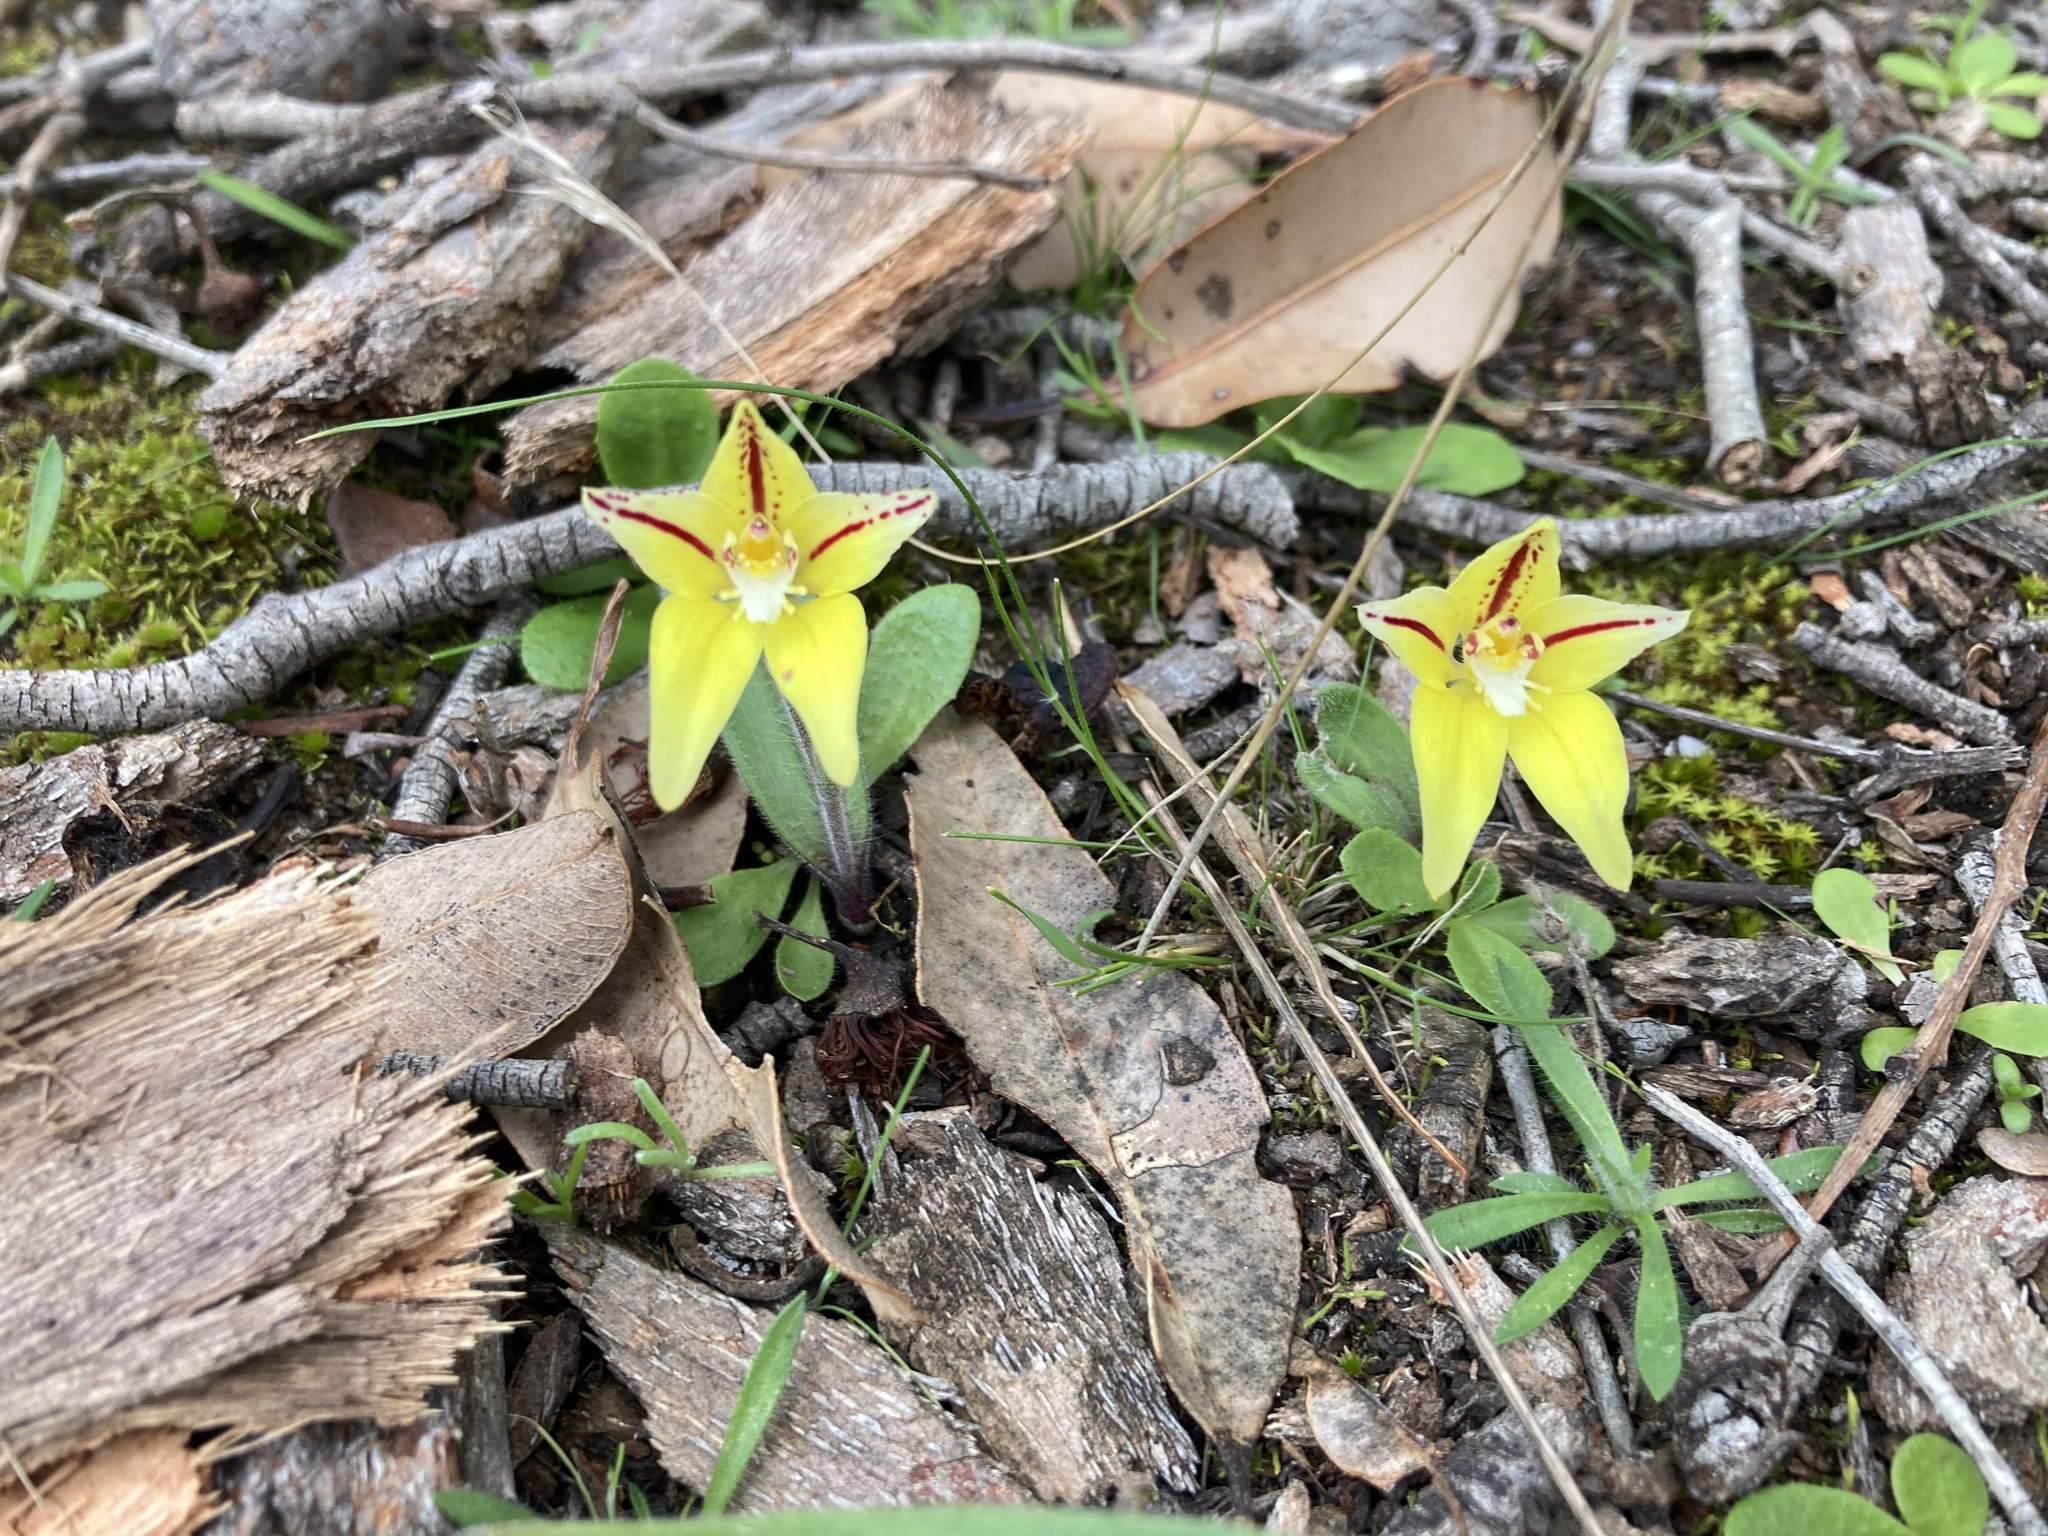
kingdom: Plantae
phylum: Tracheophyta
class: Liliopsida
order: Asparagales
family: Orchidaceae
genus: Caladenia
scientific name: Caladenia flava
